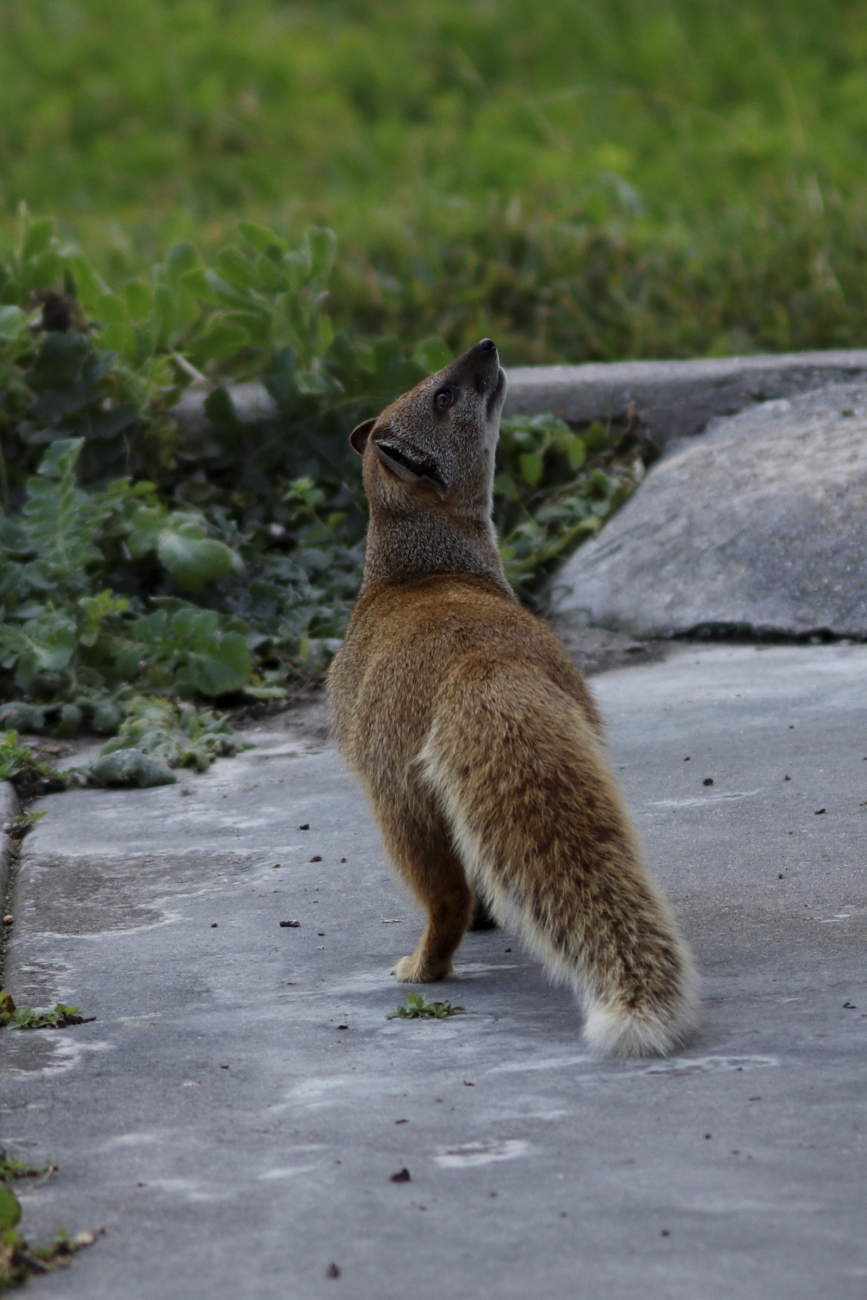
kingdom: Animalia
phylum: Chordata
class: Mammalia
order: Carnivora
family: Herpestidae
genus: Cynictis
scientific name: Cynictis penicillata
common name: Yellow mongoose
